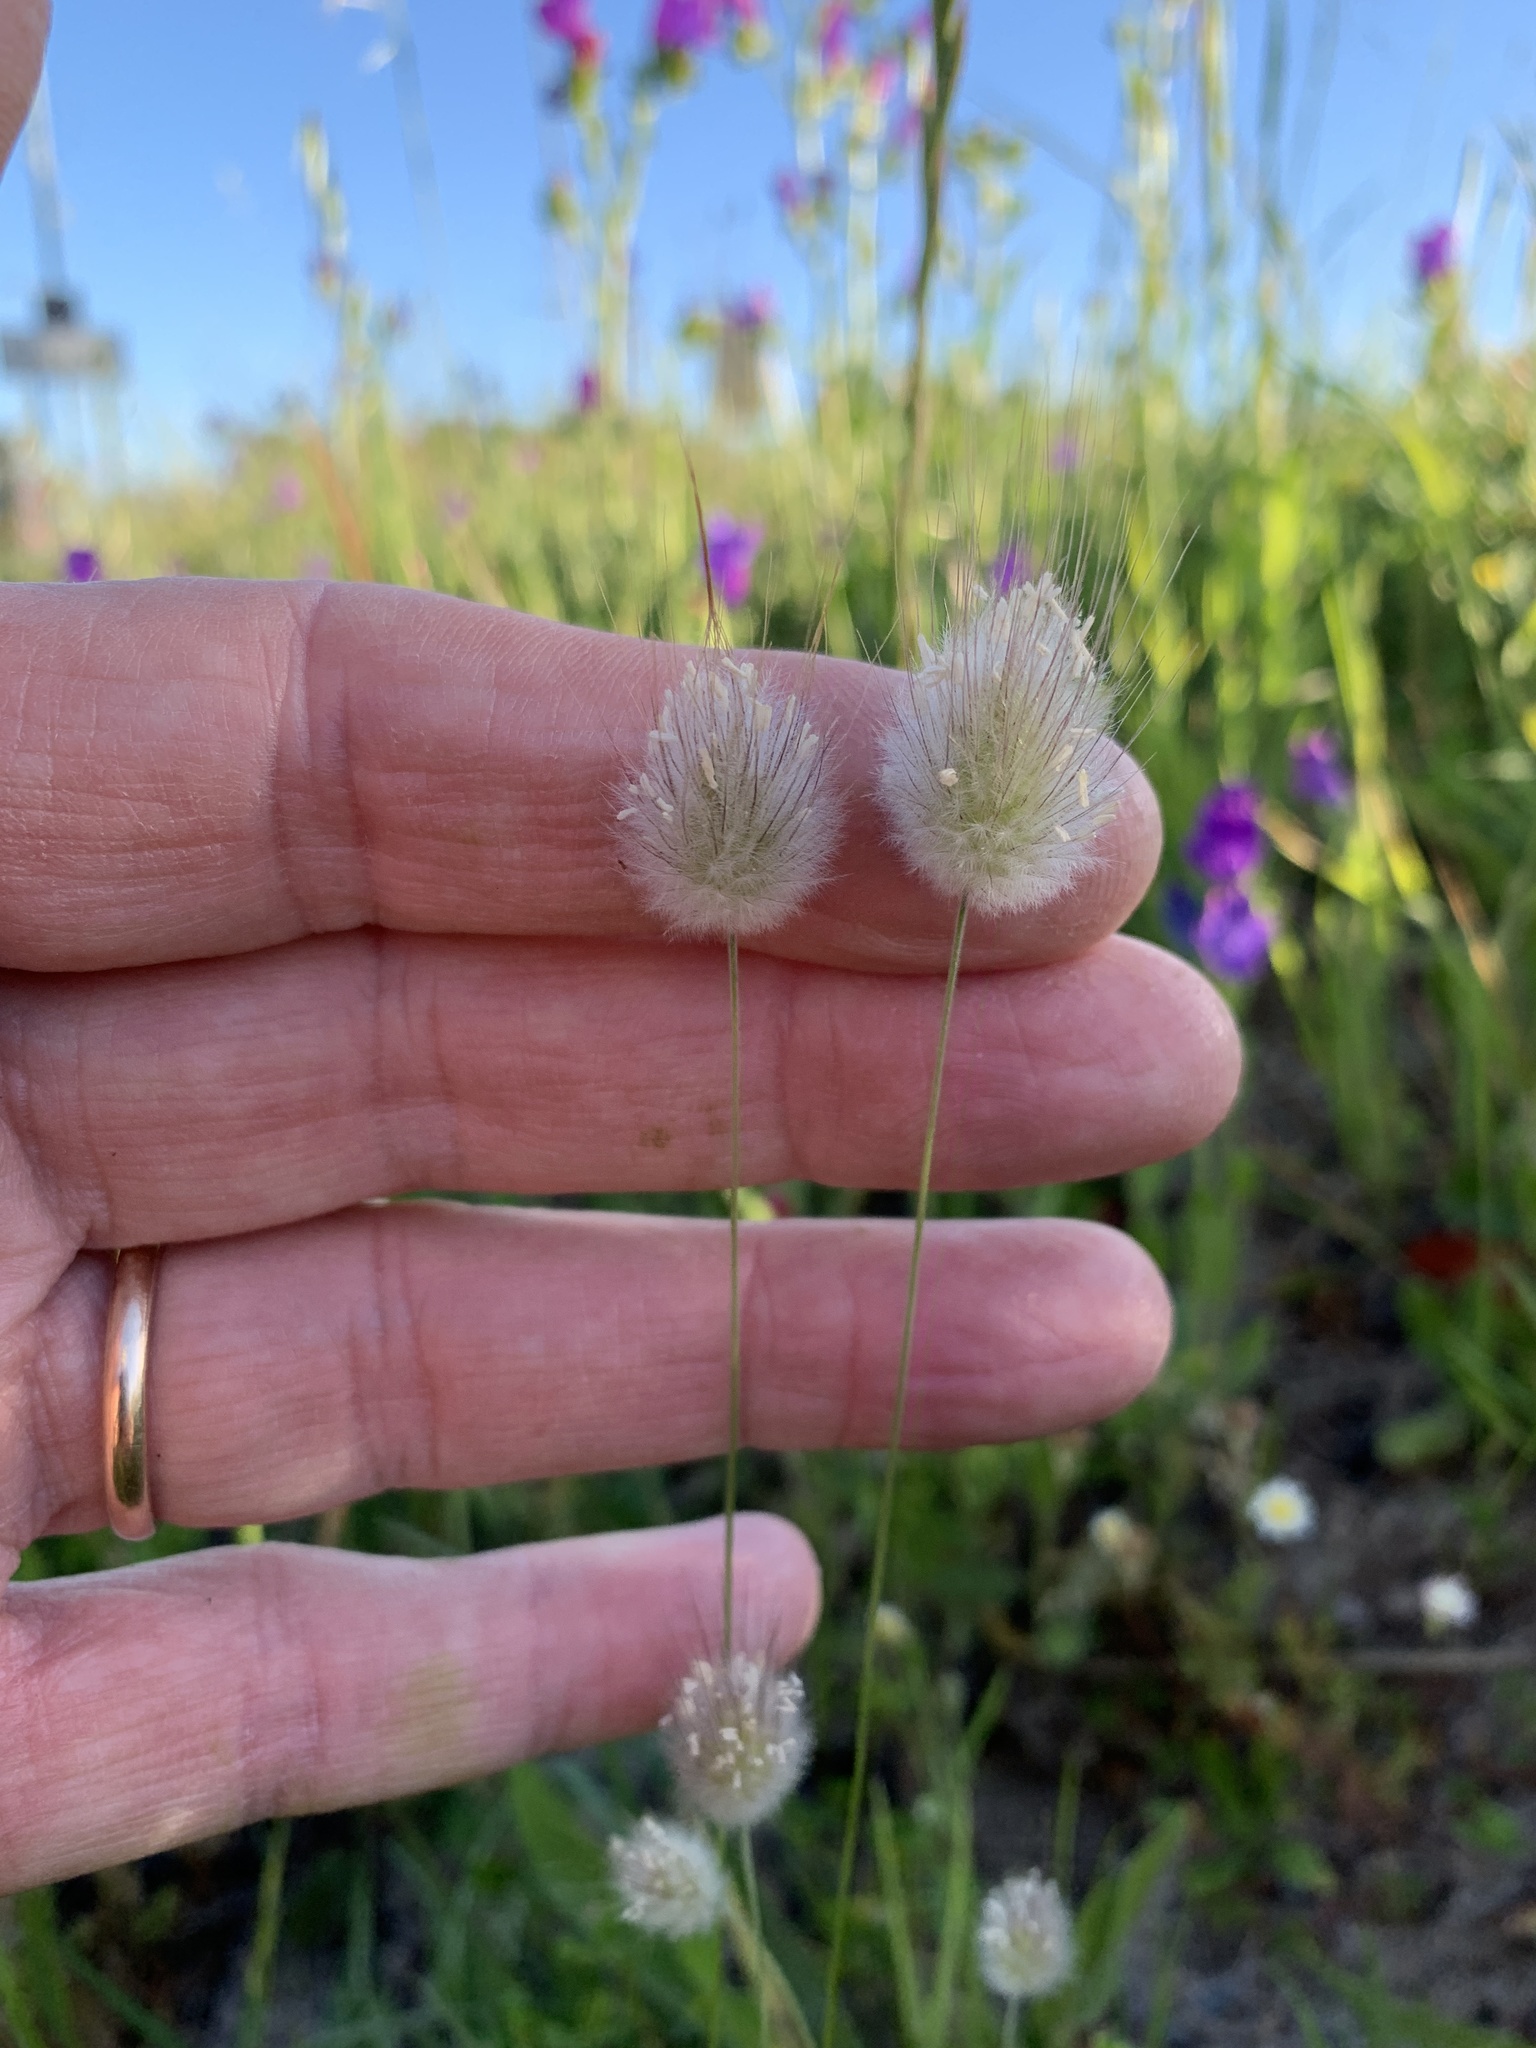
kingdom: Plantae
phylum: Tracheophyta
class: Liliopsida
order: Poales
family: Poaceae
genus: Lagurus
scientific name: Lagurus ovatus
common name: Hare's-tail
